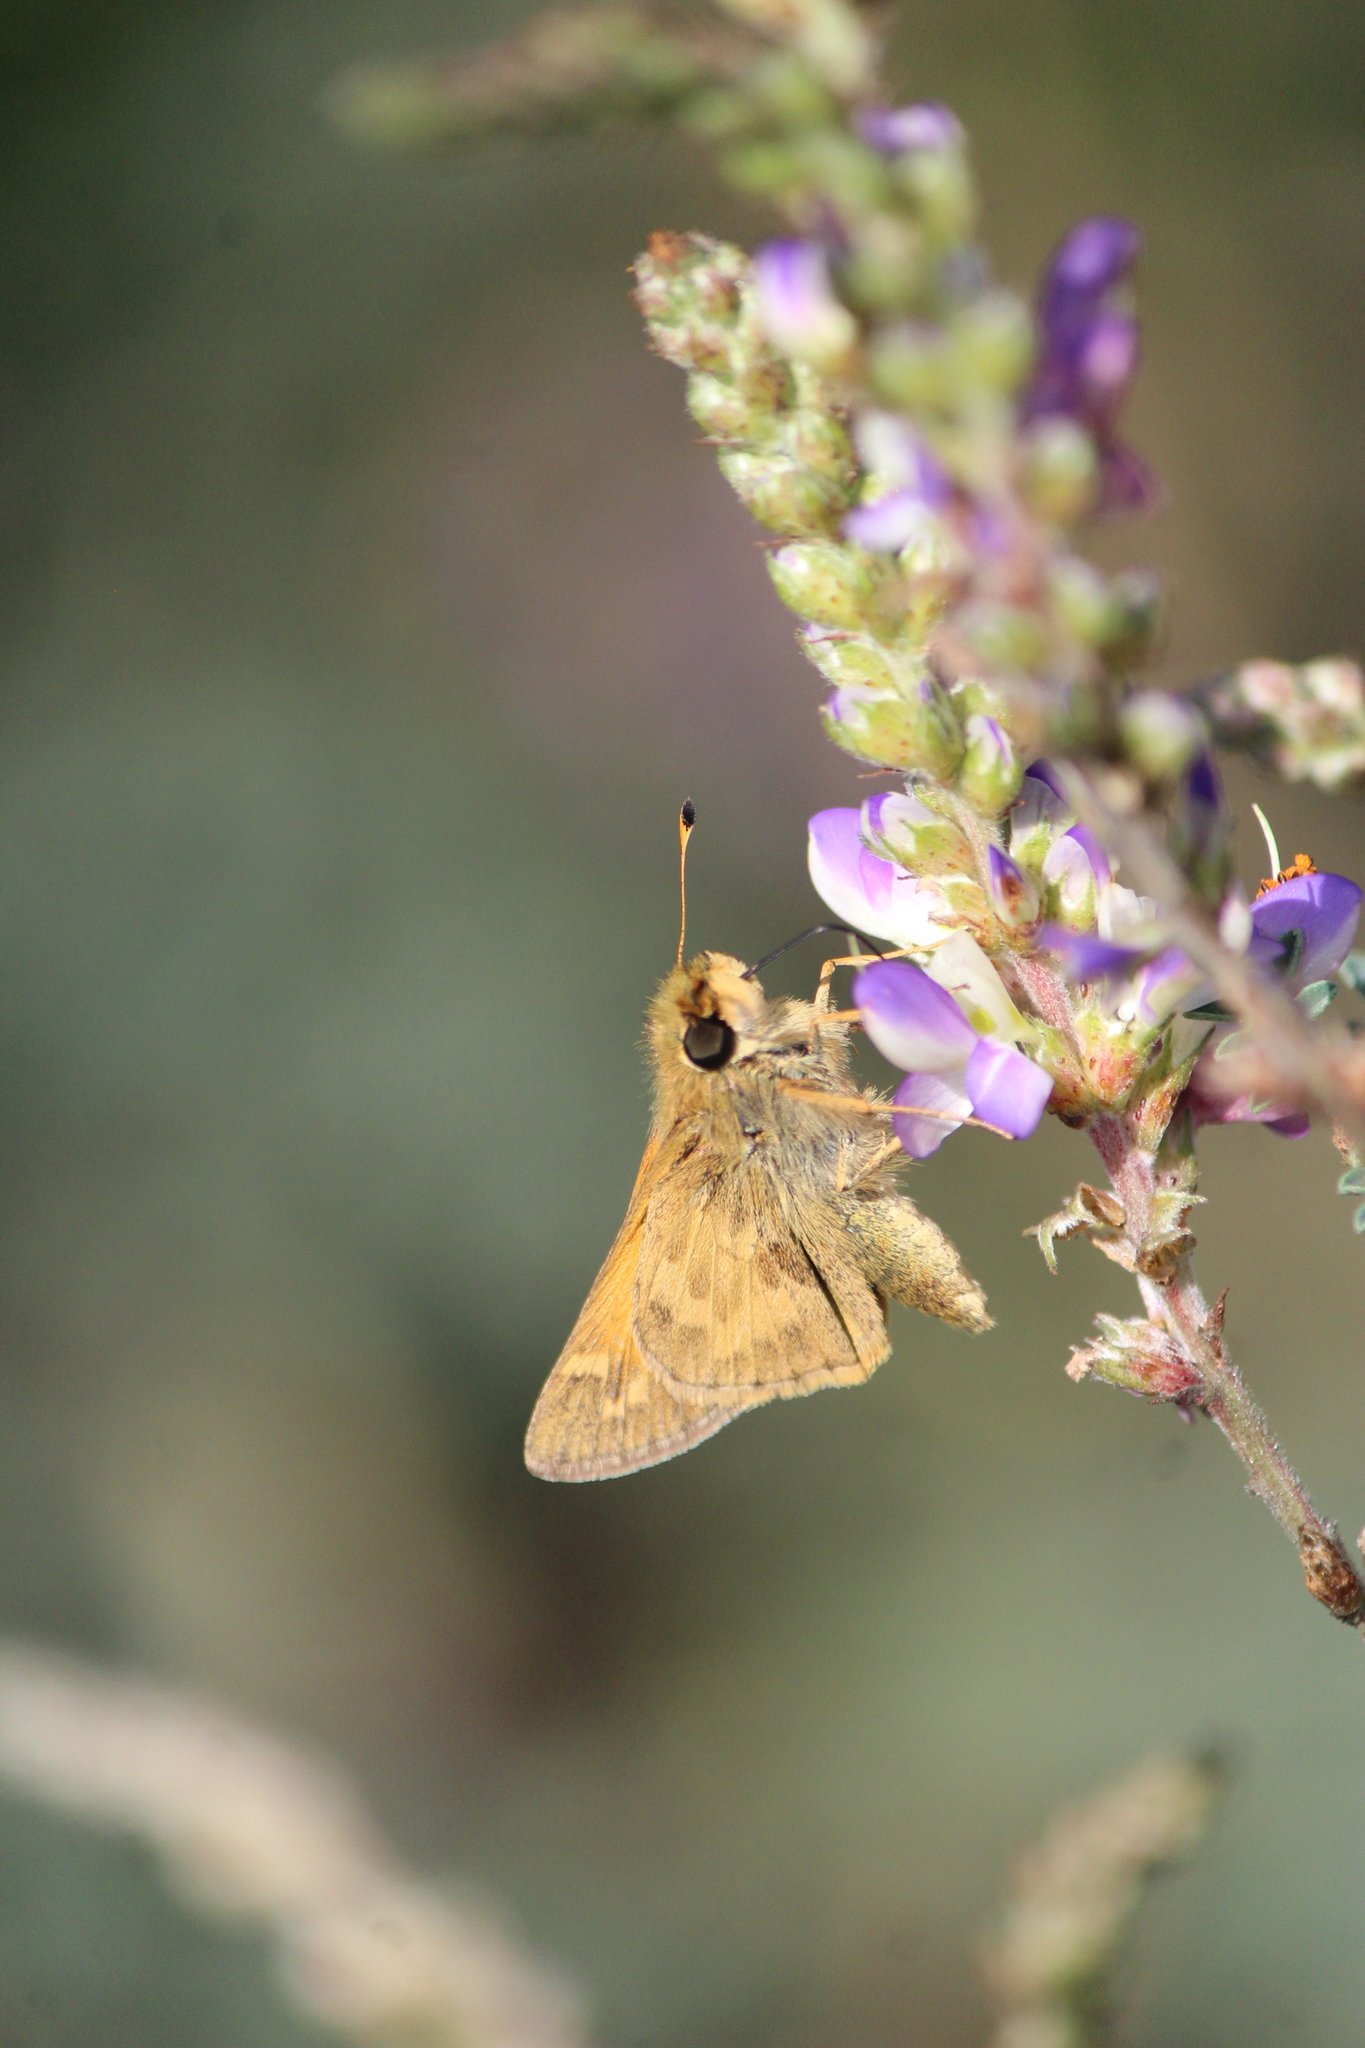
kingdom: Animalia
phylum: Arthropoda
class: Insecta
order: Lepidoptera
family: Hesperiidae
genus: Atalopedes
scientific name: Atalopedes
